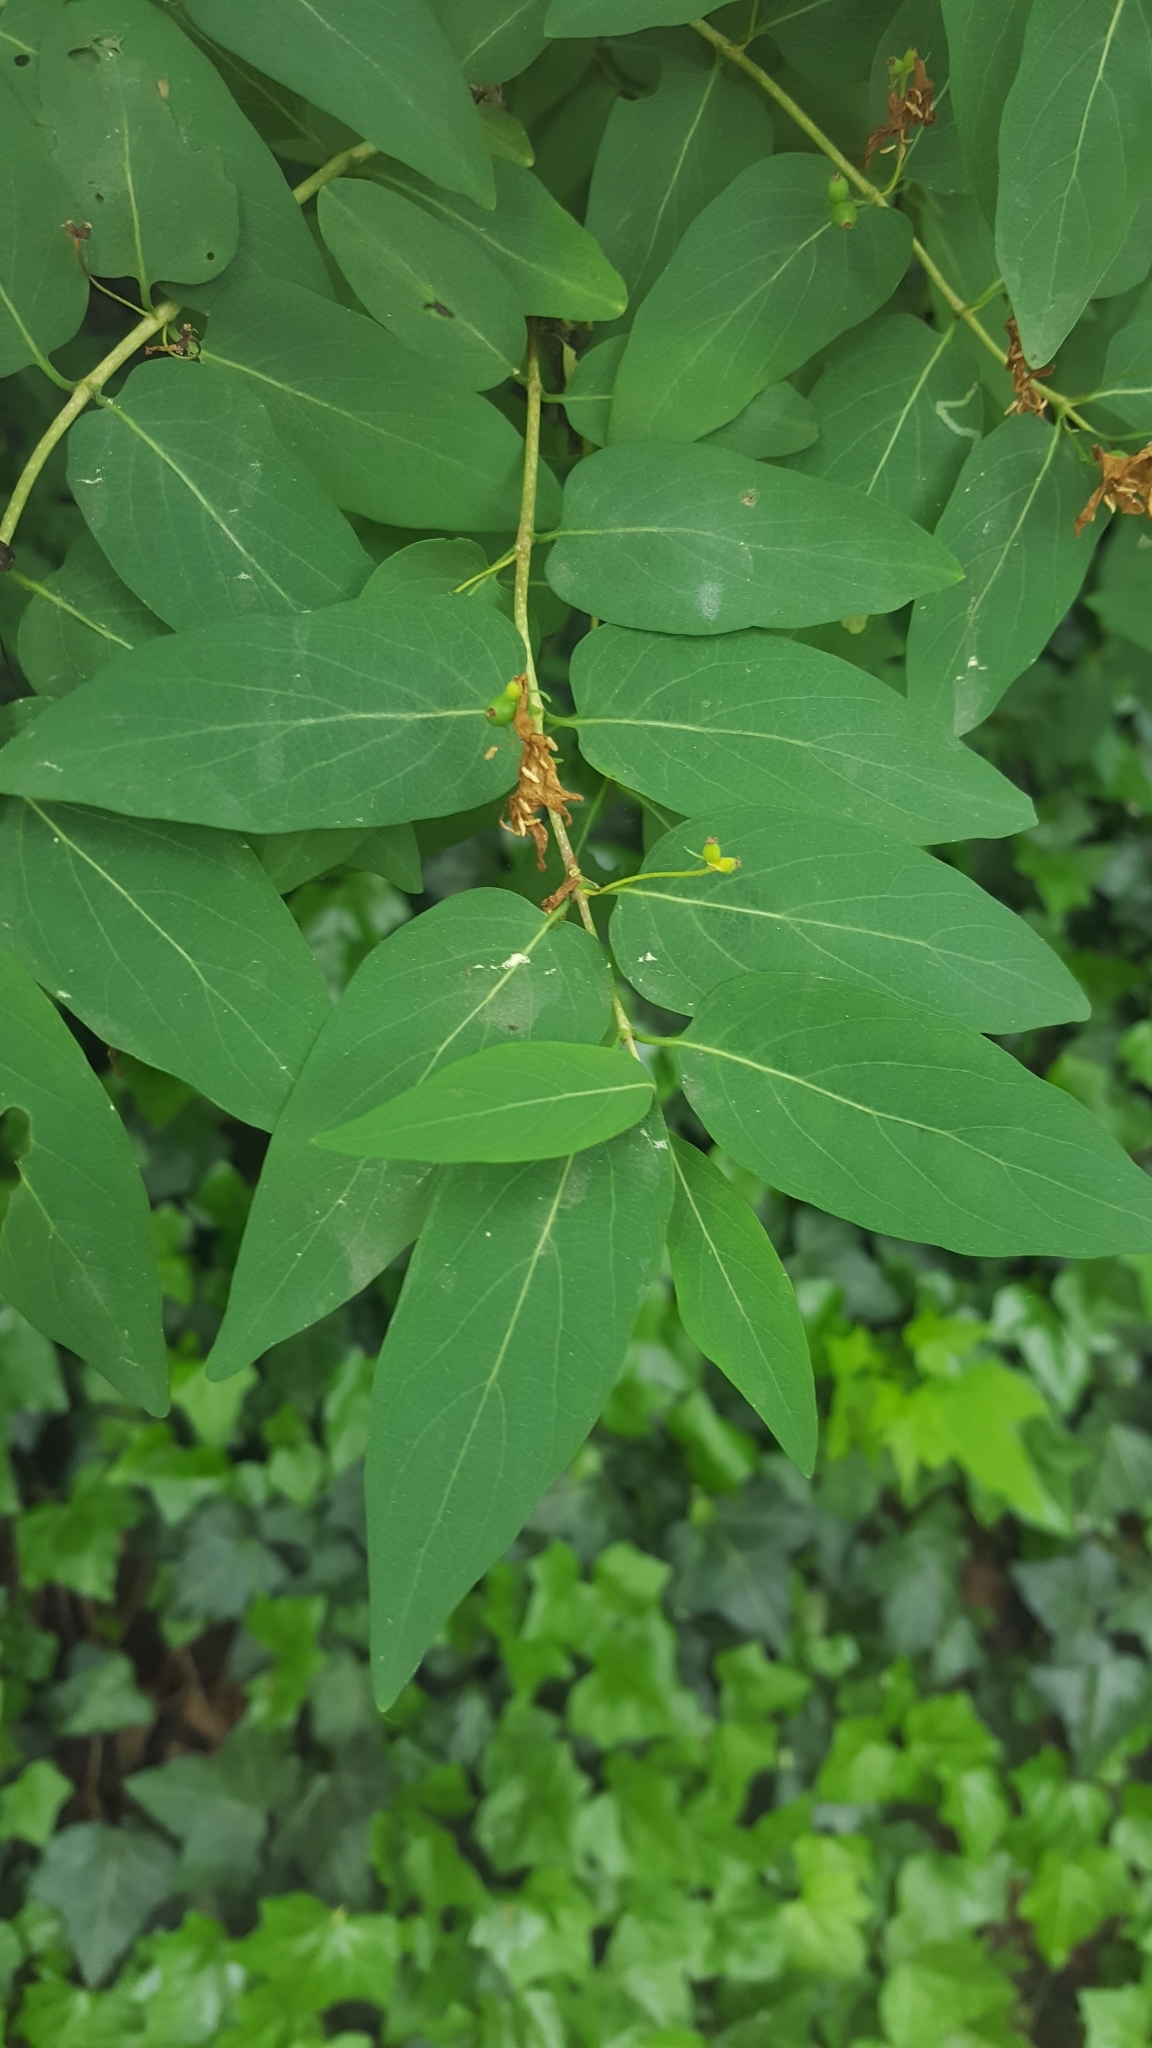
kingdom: Plantae
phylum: Tracheophyta
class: Magnoliopsida
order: Dipsacales
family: Caprifoliaceae
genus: Lonicera
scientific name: Lonicera acuminata
